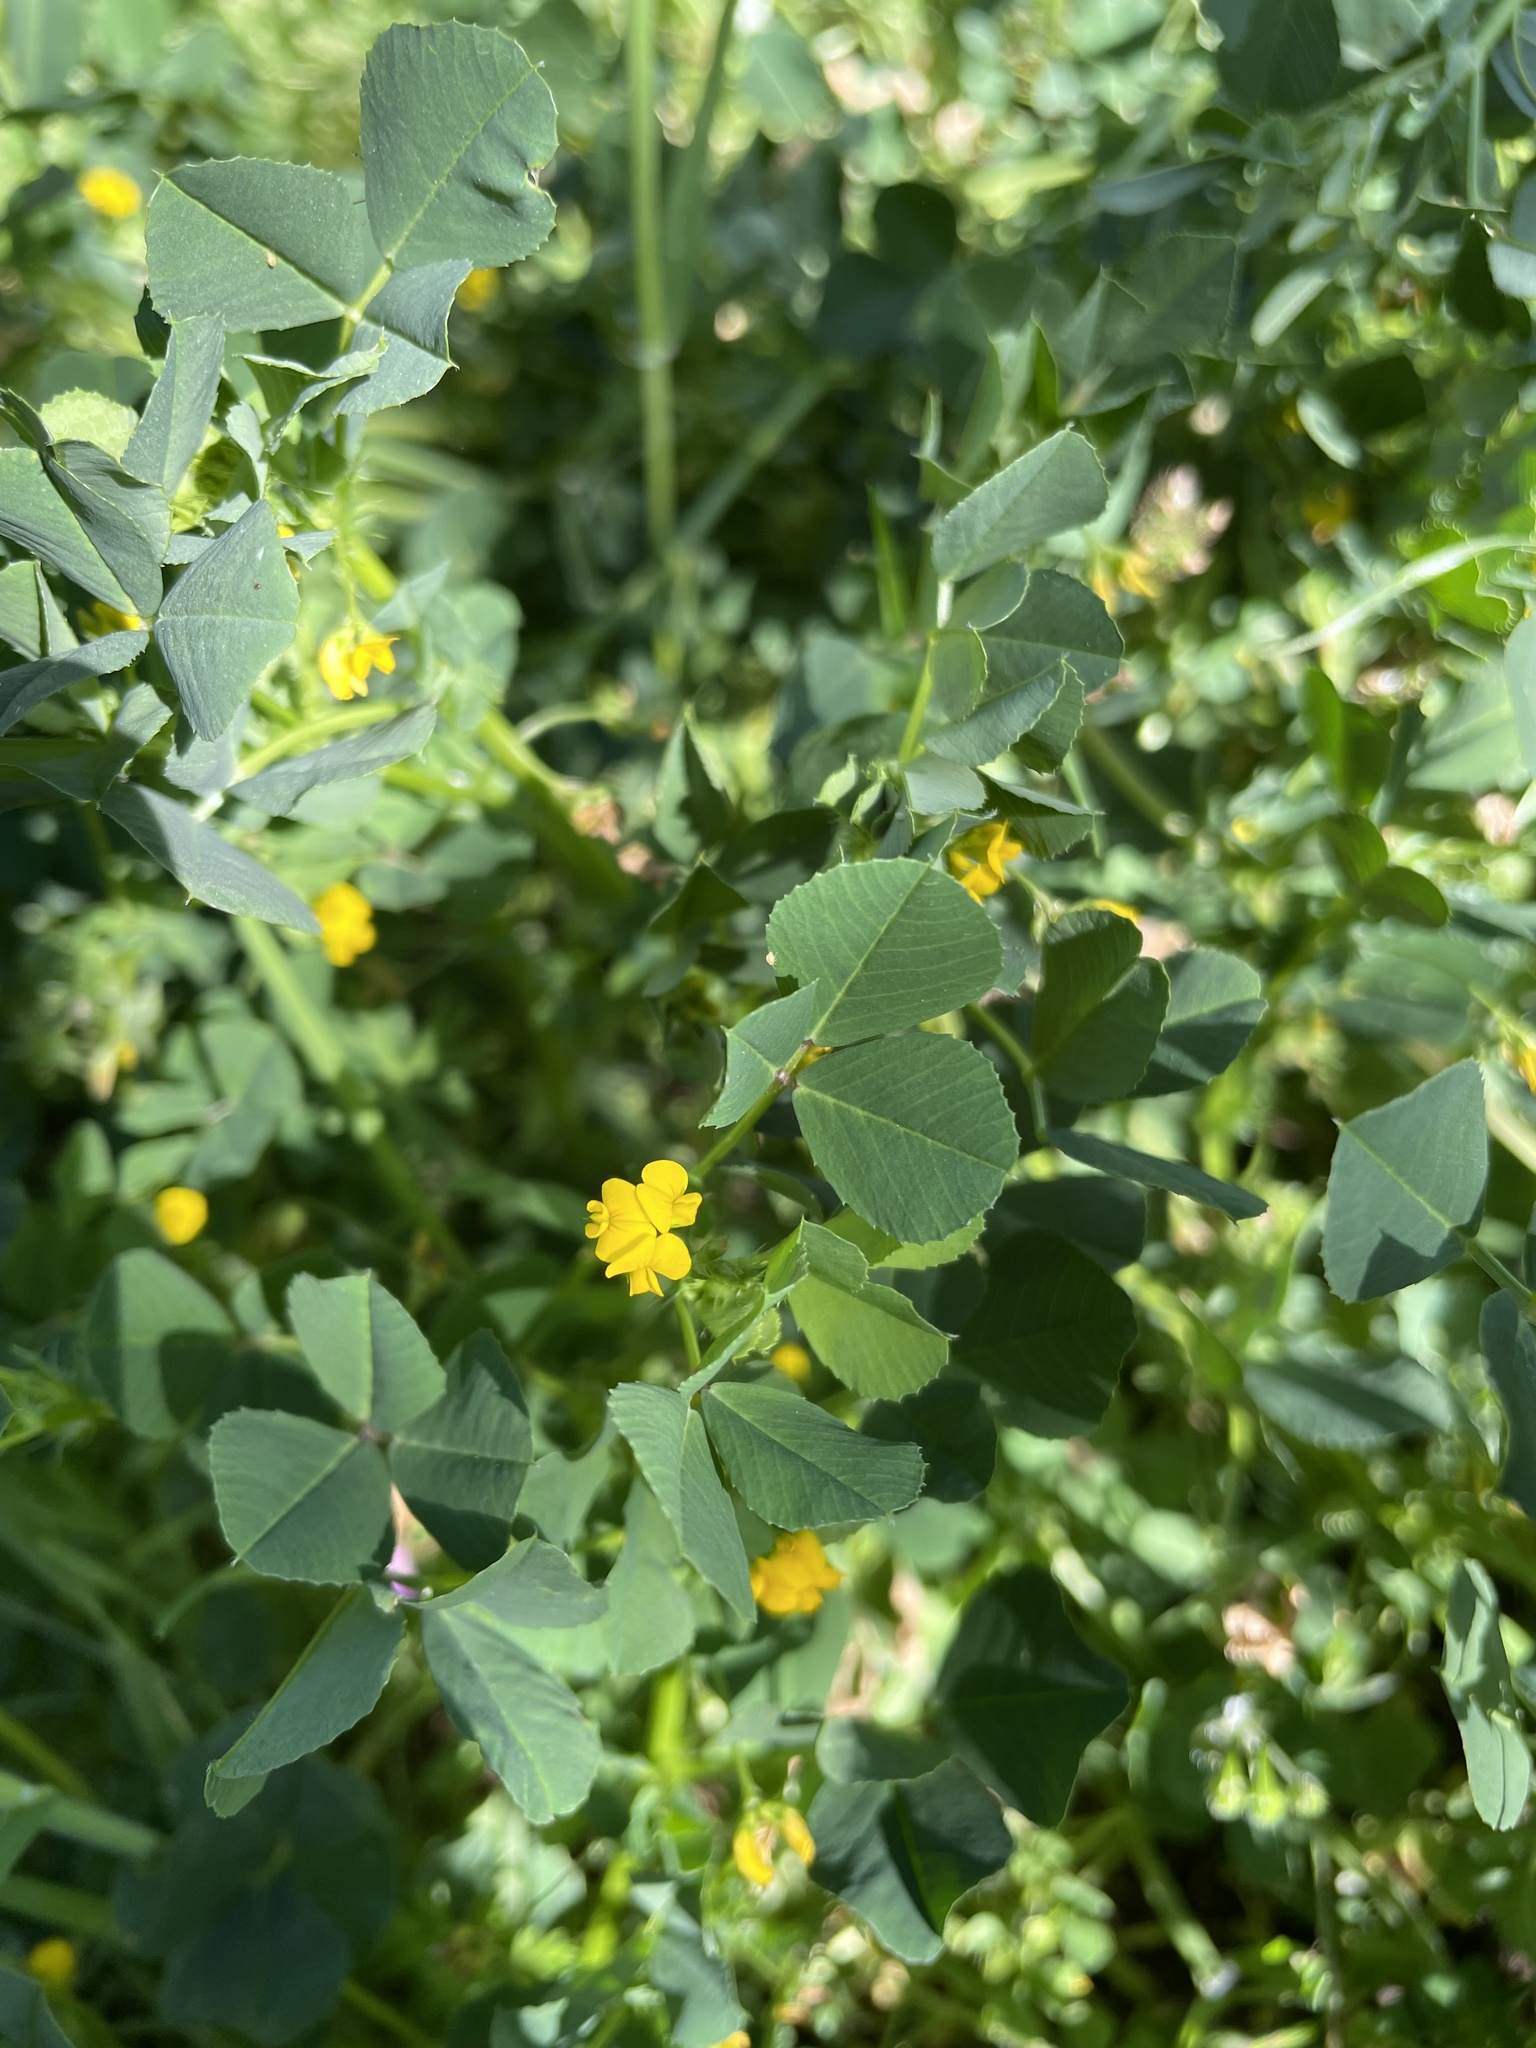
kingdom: Plantae
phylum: Tracheophyta
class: Magnoliopsida
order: Fabales
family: Fabaceae
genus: Medicago
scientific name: Medicago polymorpha
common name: Burclover
